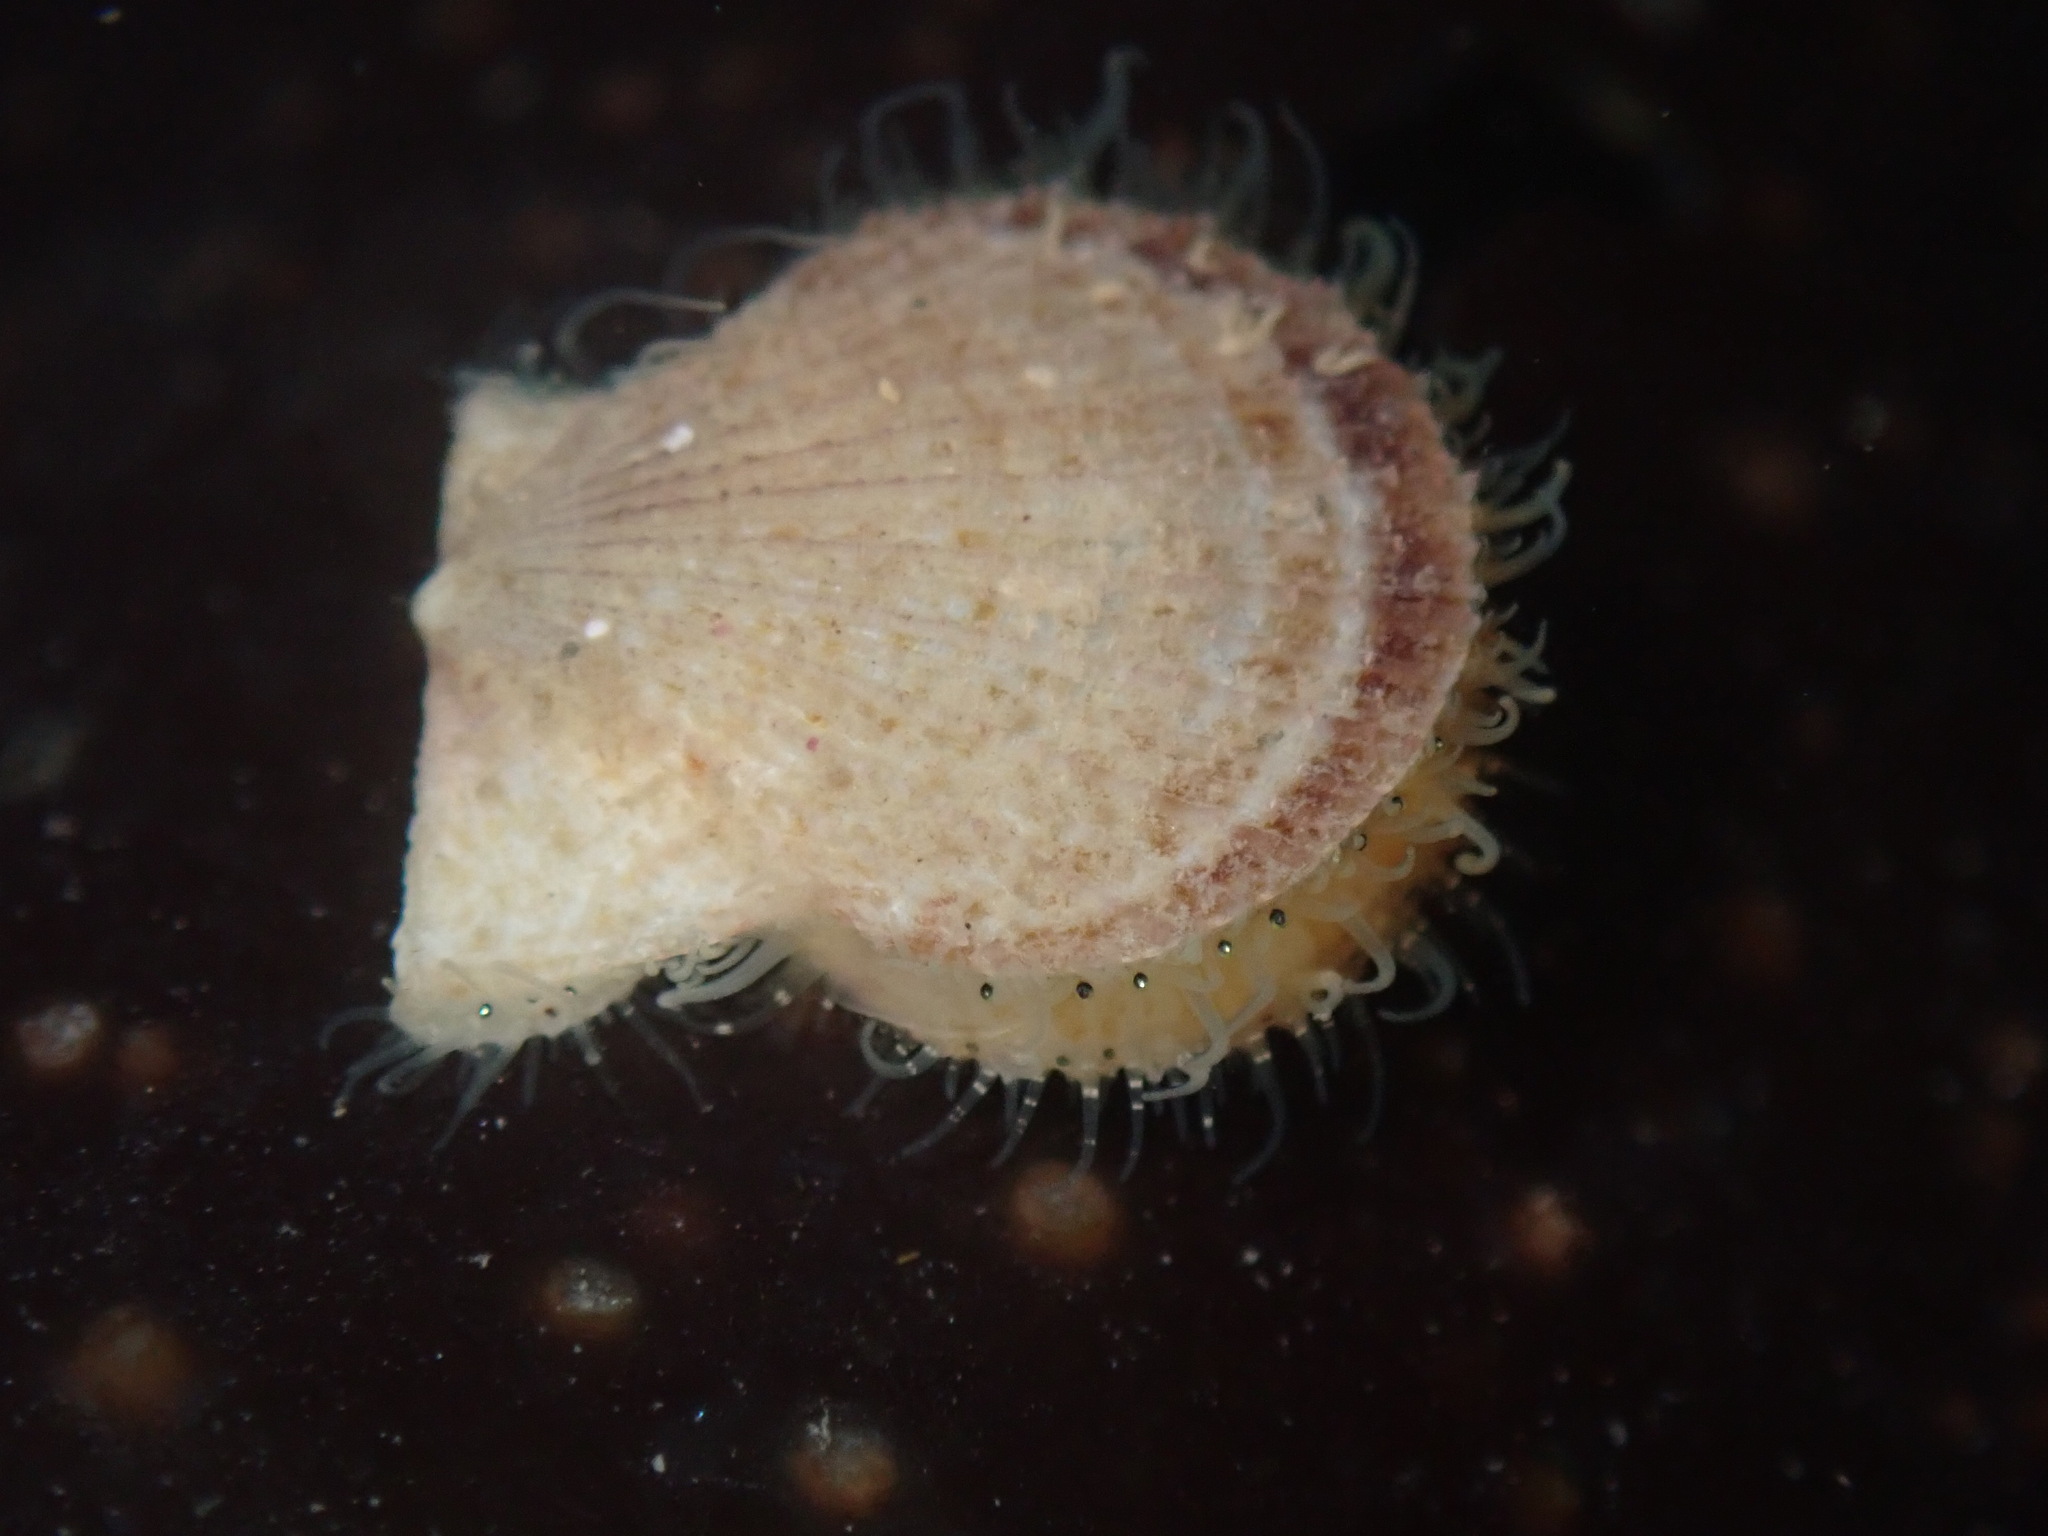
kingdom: Animalia
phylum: Mollusca
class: Bivalvia
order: Pectinida
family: Pectinidae
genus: Crassadoma
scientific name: Crassadoma gigantea
